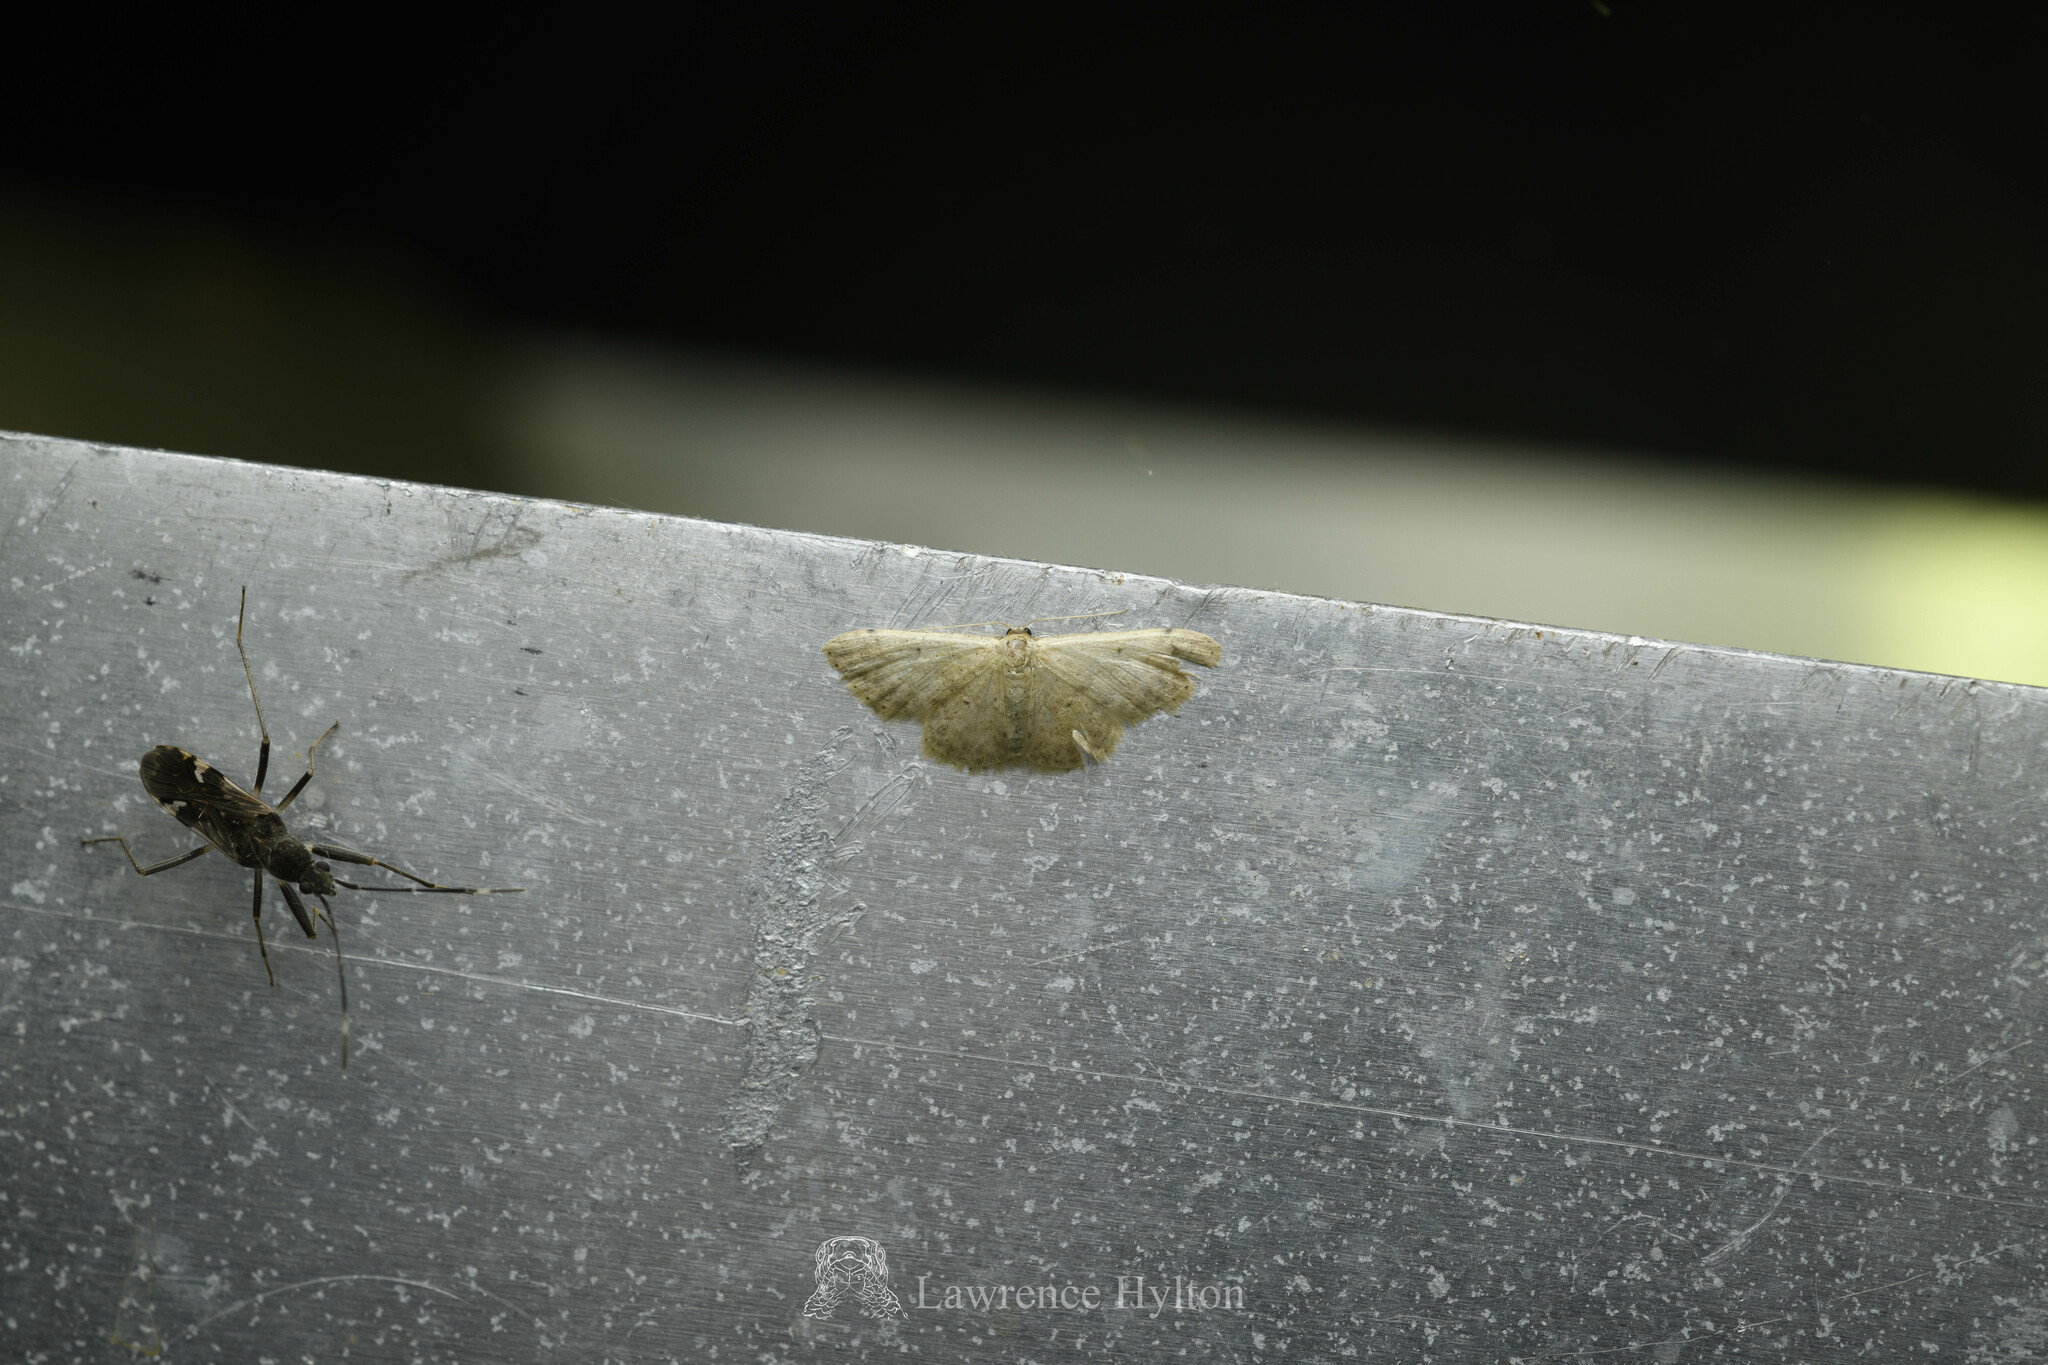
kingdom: Animalia
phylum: Arthropoda
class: Insecta
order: Lepidoptera
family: Geometridae
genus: Idaea
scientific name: Idaea sakuraii
